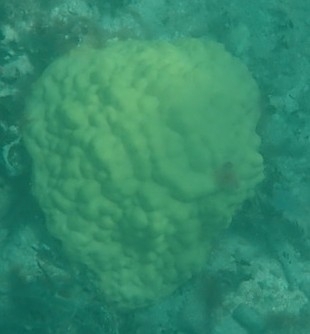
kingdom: Animalia
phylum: Cnidaria
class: Anthozoa
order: Scleractinia
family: Poritidae
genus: Porites
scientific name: Porites astreoides
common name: Mustard hill coral
